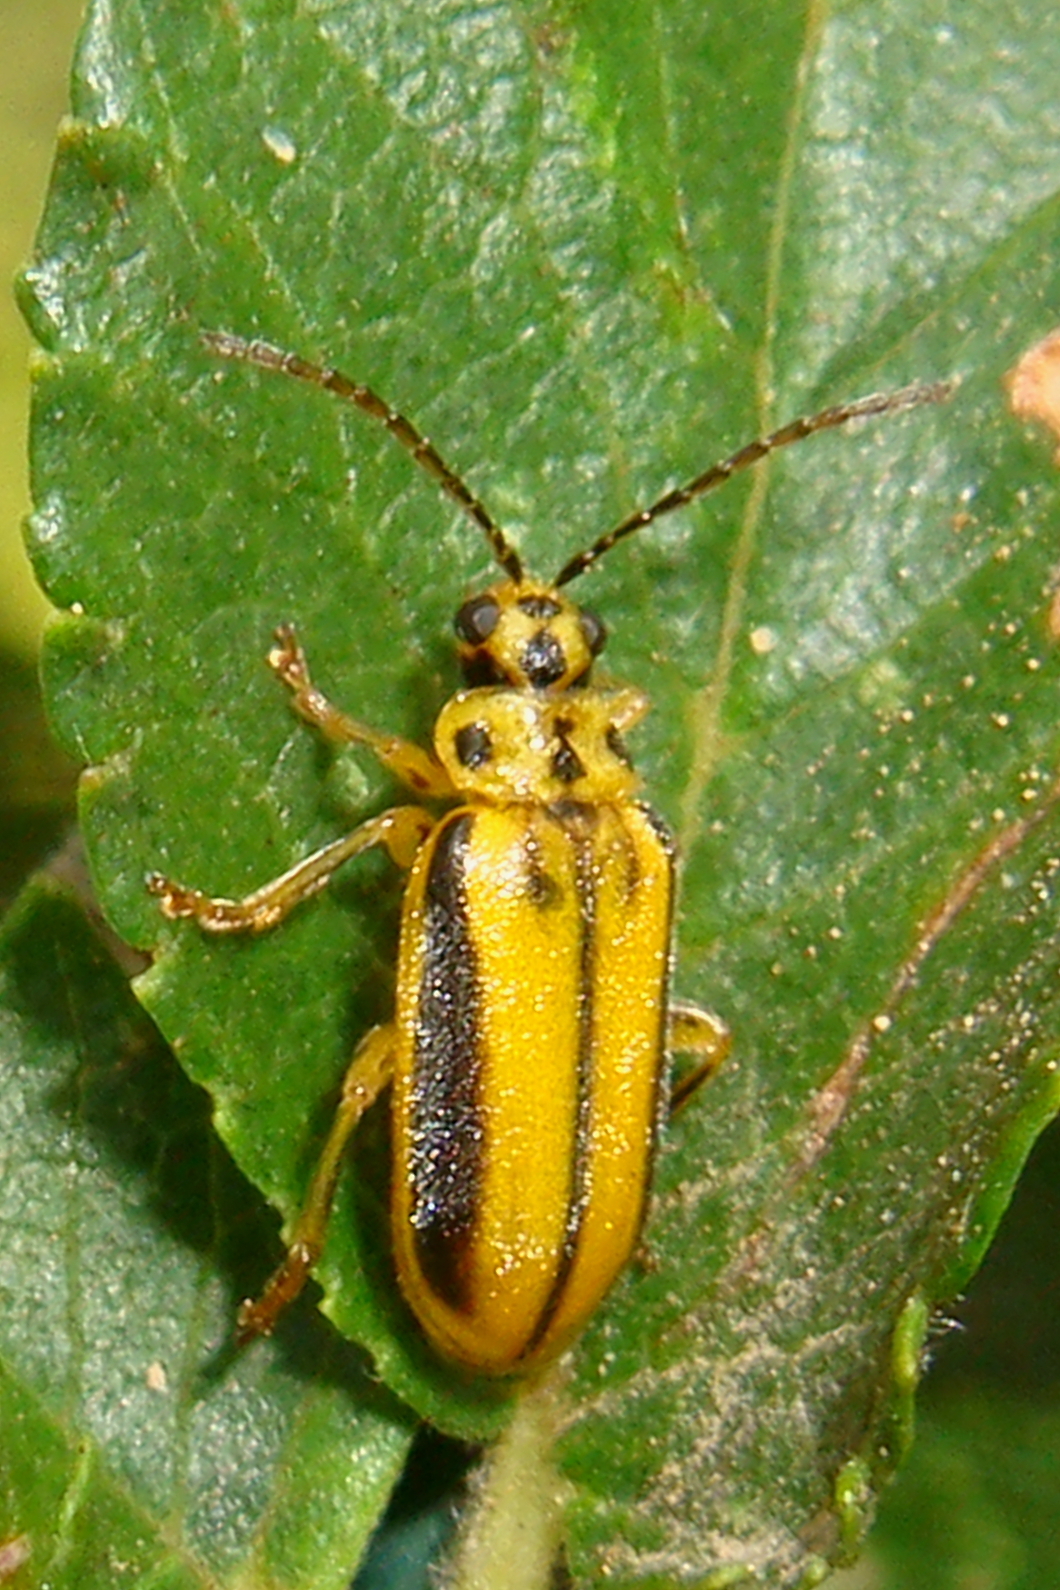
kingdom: Animalia
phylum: Arthropoda
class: Insecta
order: Coleoptera
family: Chrysomelidae
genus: Xanthogaleruca
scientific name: Xanthogaleruca luteola
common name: Elm leaf beetle
